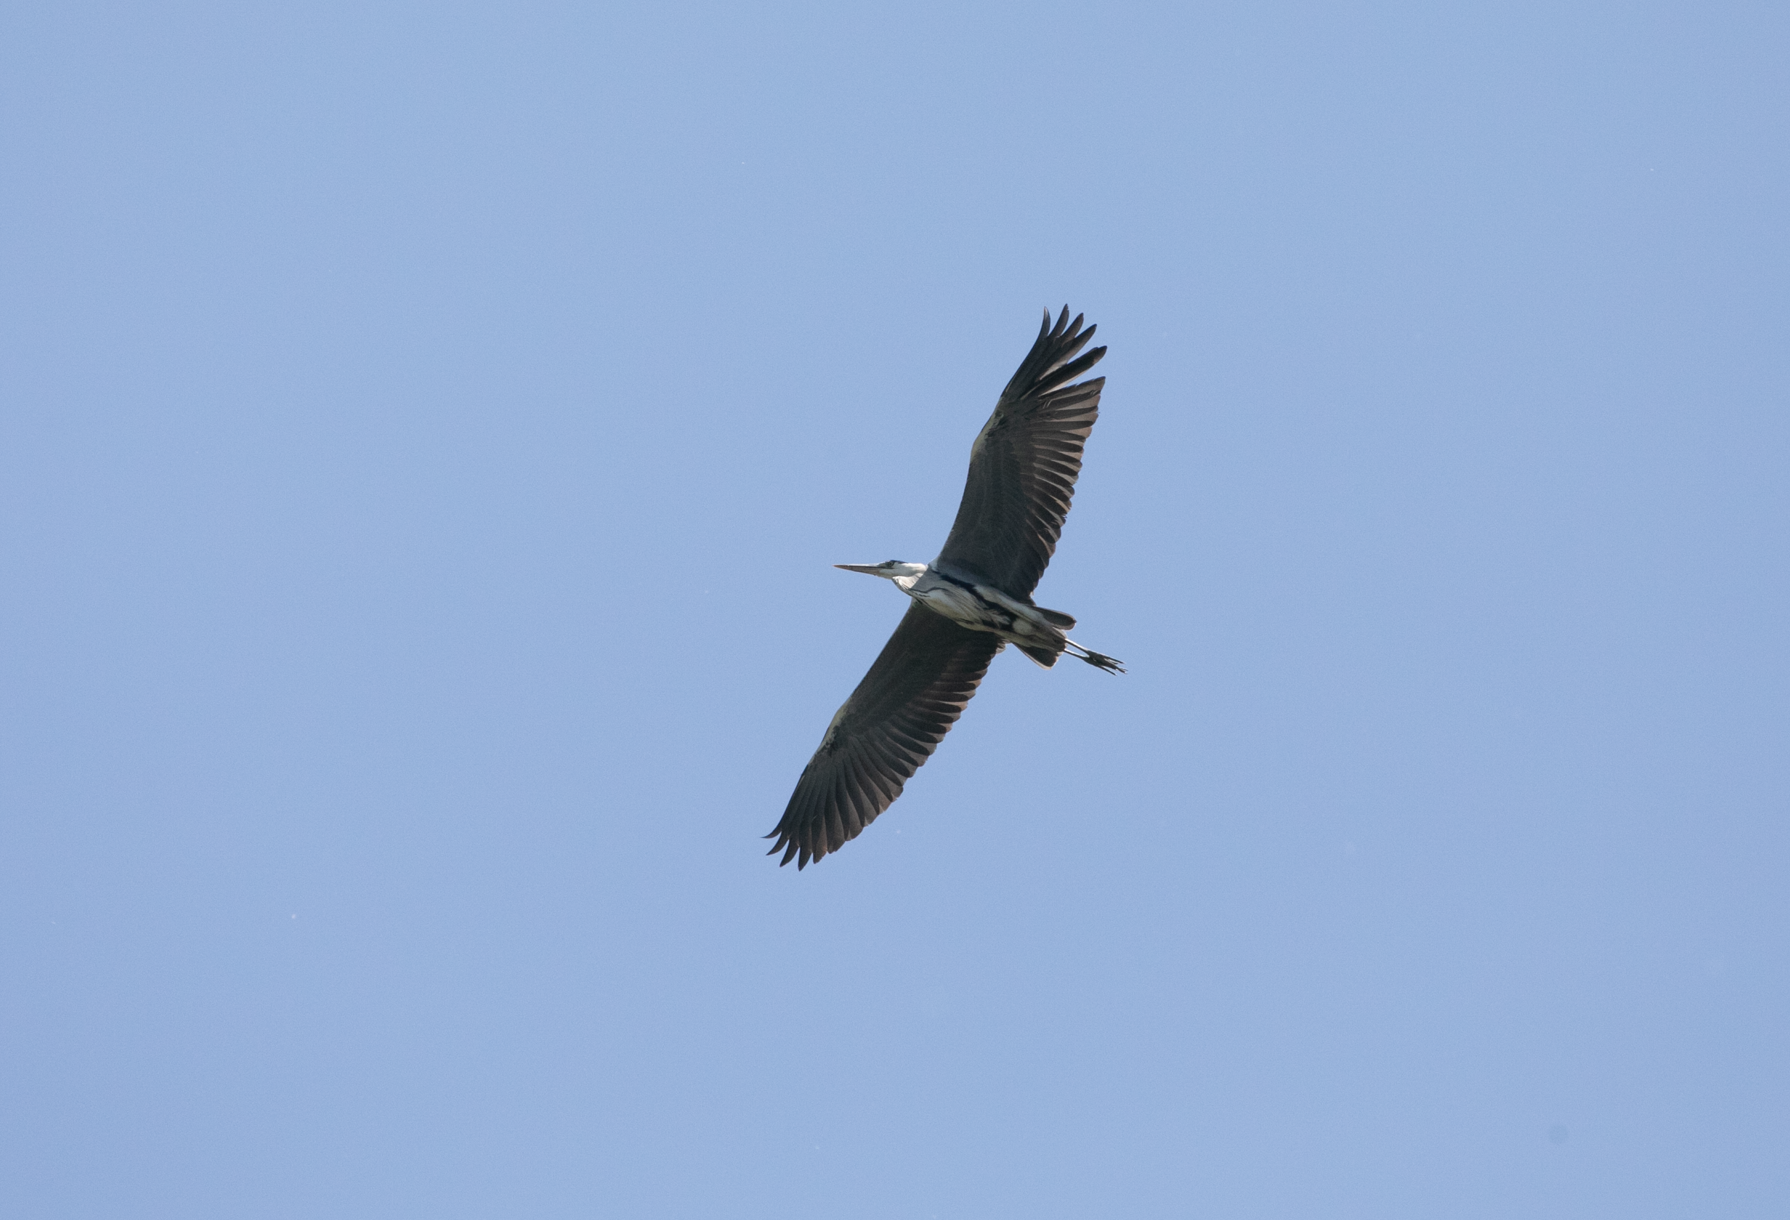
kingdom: Animalia
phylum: Chordata
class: Aves
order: Pelecaniformes
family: Ardeidae
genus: Ardea
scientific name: Ardea cinerea
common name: Grey heron
